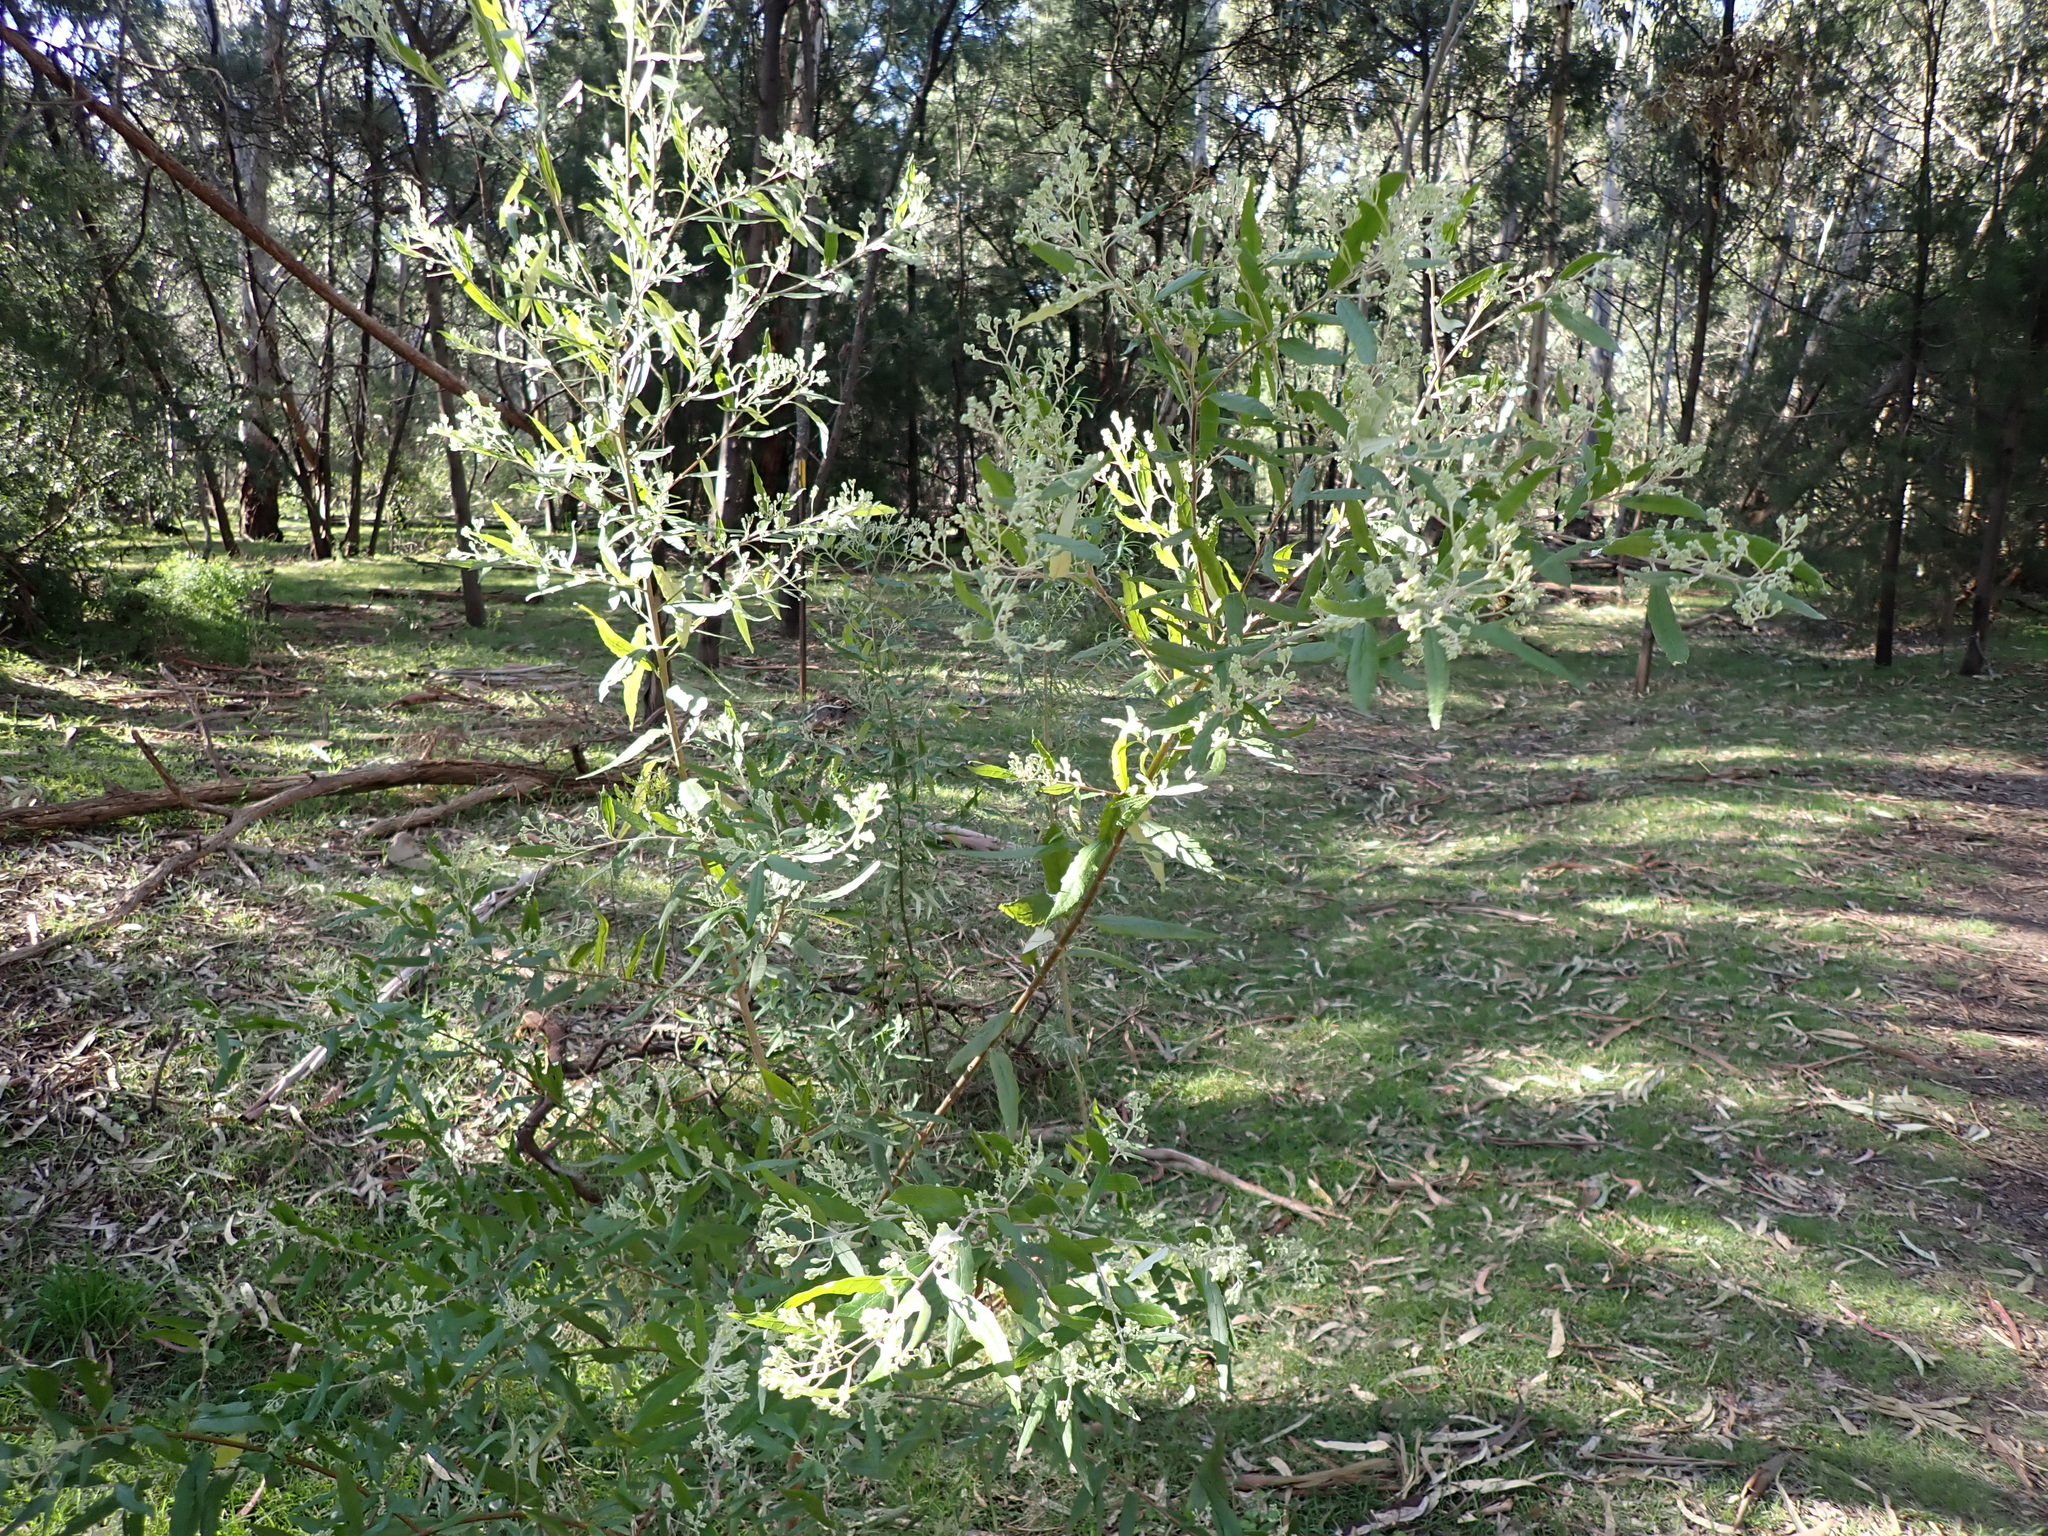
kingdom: Plantae
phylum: Tracheophyta
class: Magnoliopsida
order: Asterales
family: Asteraceae
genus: Olearia
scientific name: Olearia lirata
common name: Dusty daisybush
